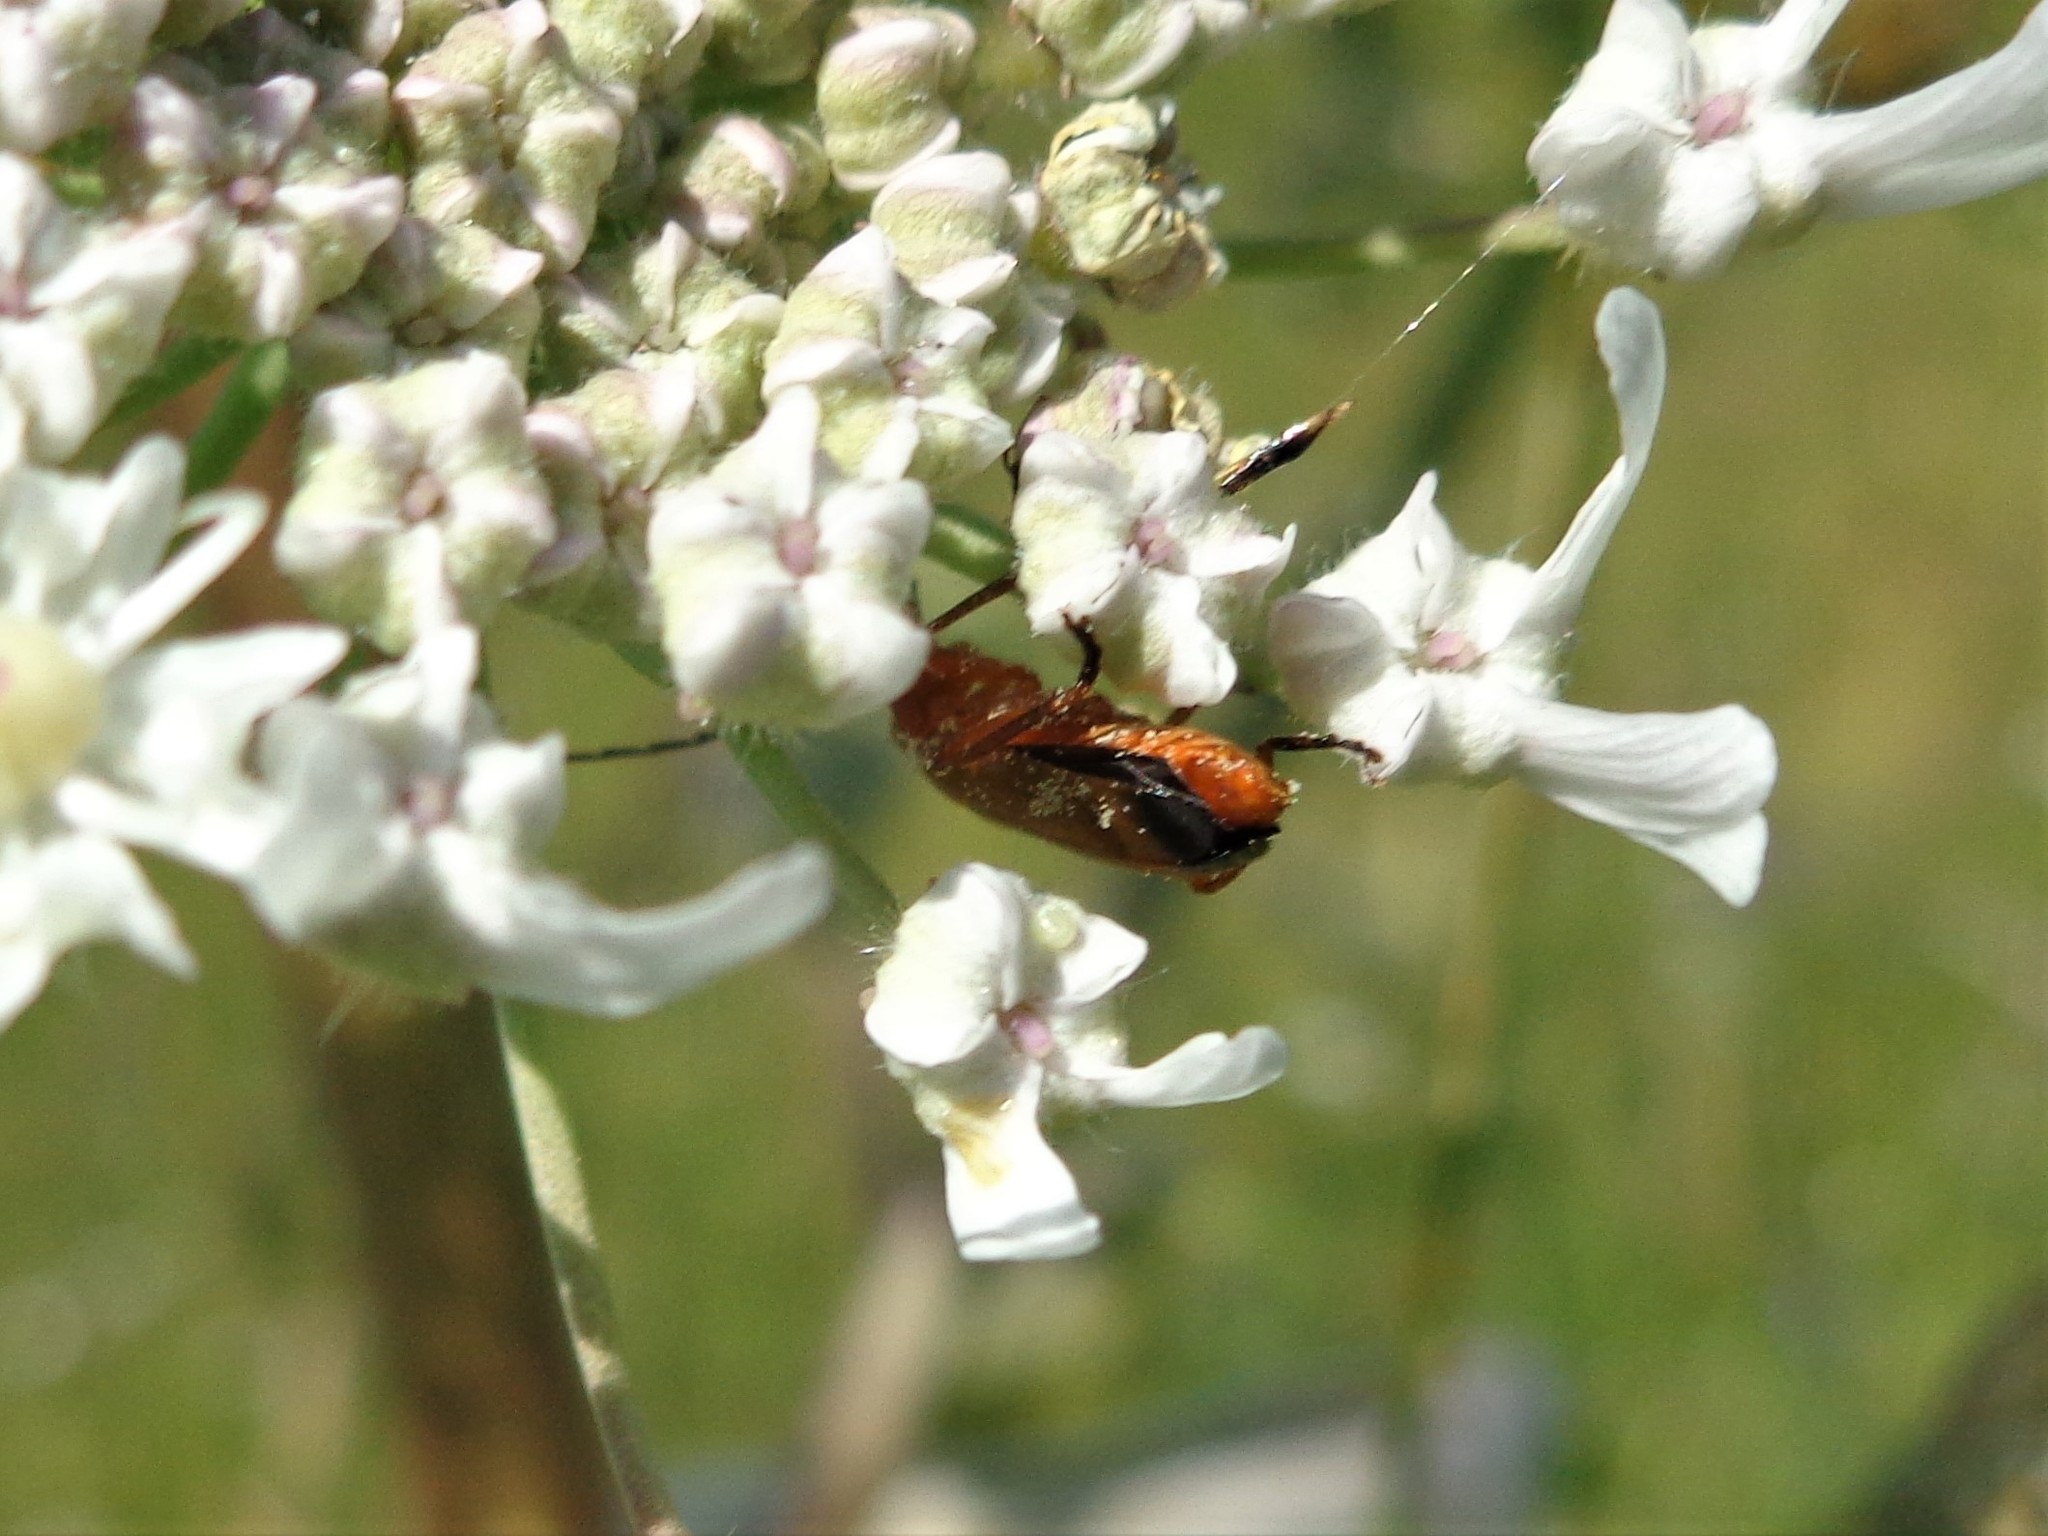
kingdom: Animalia
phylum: Arthropoda
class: Insecta
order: Coleoptera
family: Cantharidae
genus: Rhagonycha
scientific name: Rhagonycha fulva
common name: Common red soldier beetle
